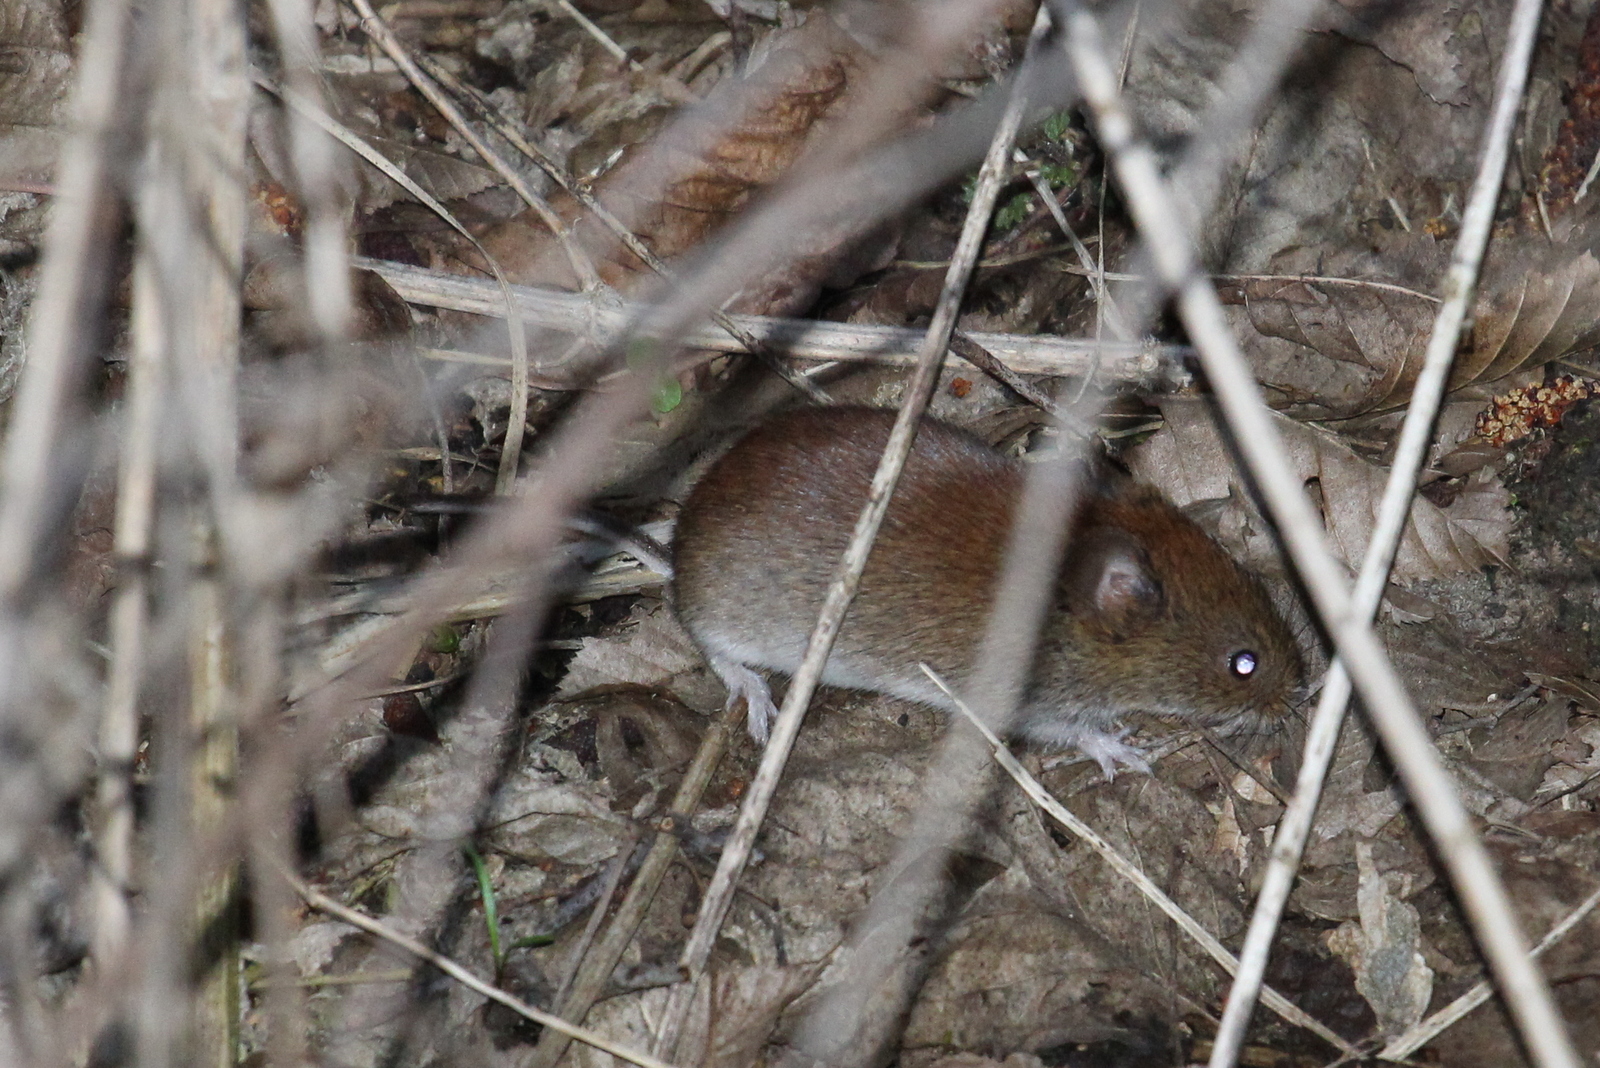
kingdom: Animalia
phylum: Chordata
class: Mammalia
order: Rodentia
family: Cricetidae
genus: Myodes
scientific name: Myodes glareolus
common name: Bank vole
